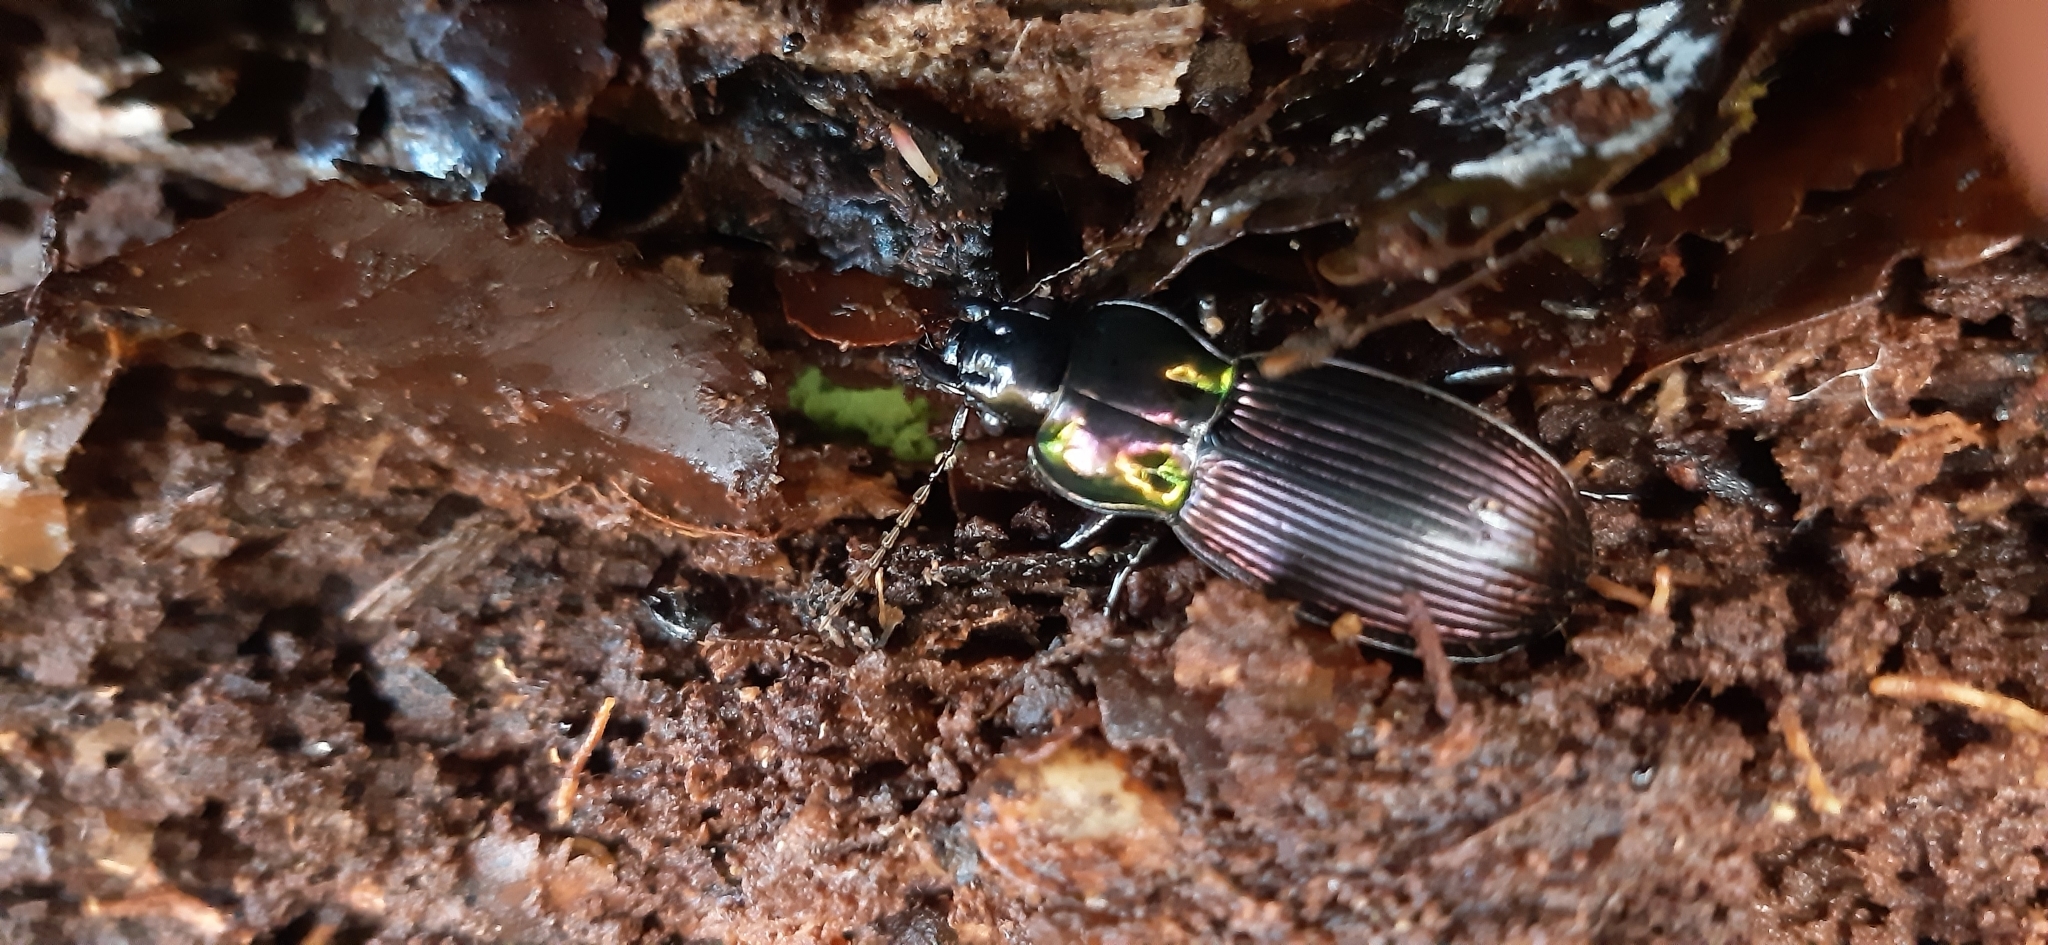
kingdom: Animalia
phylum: Arthropoda
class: Insecta
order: Coleoptera
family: Carabidae
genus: Megadromus
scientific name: Megadromus speciosus
